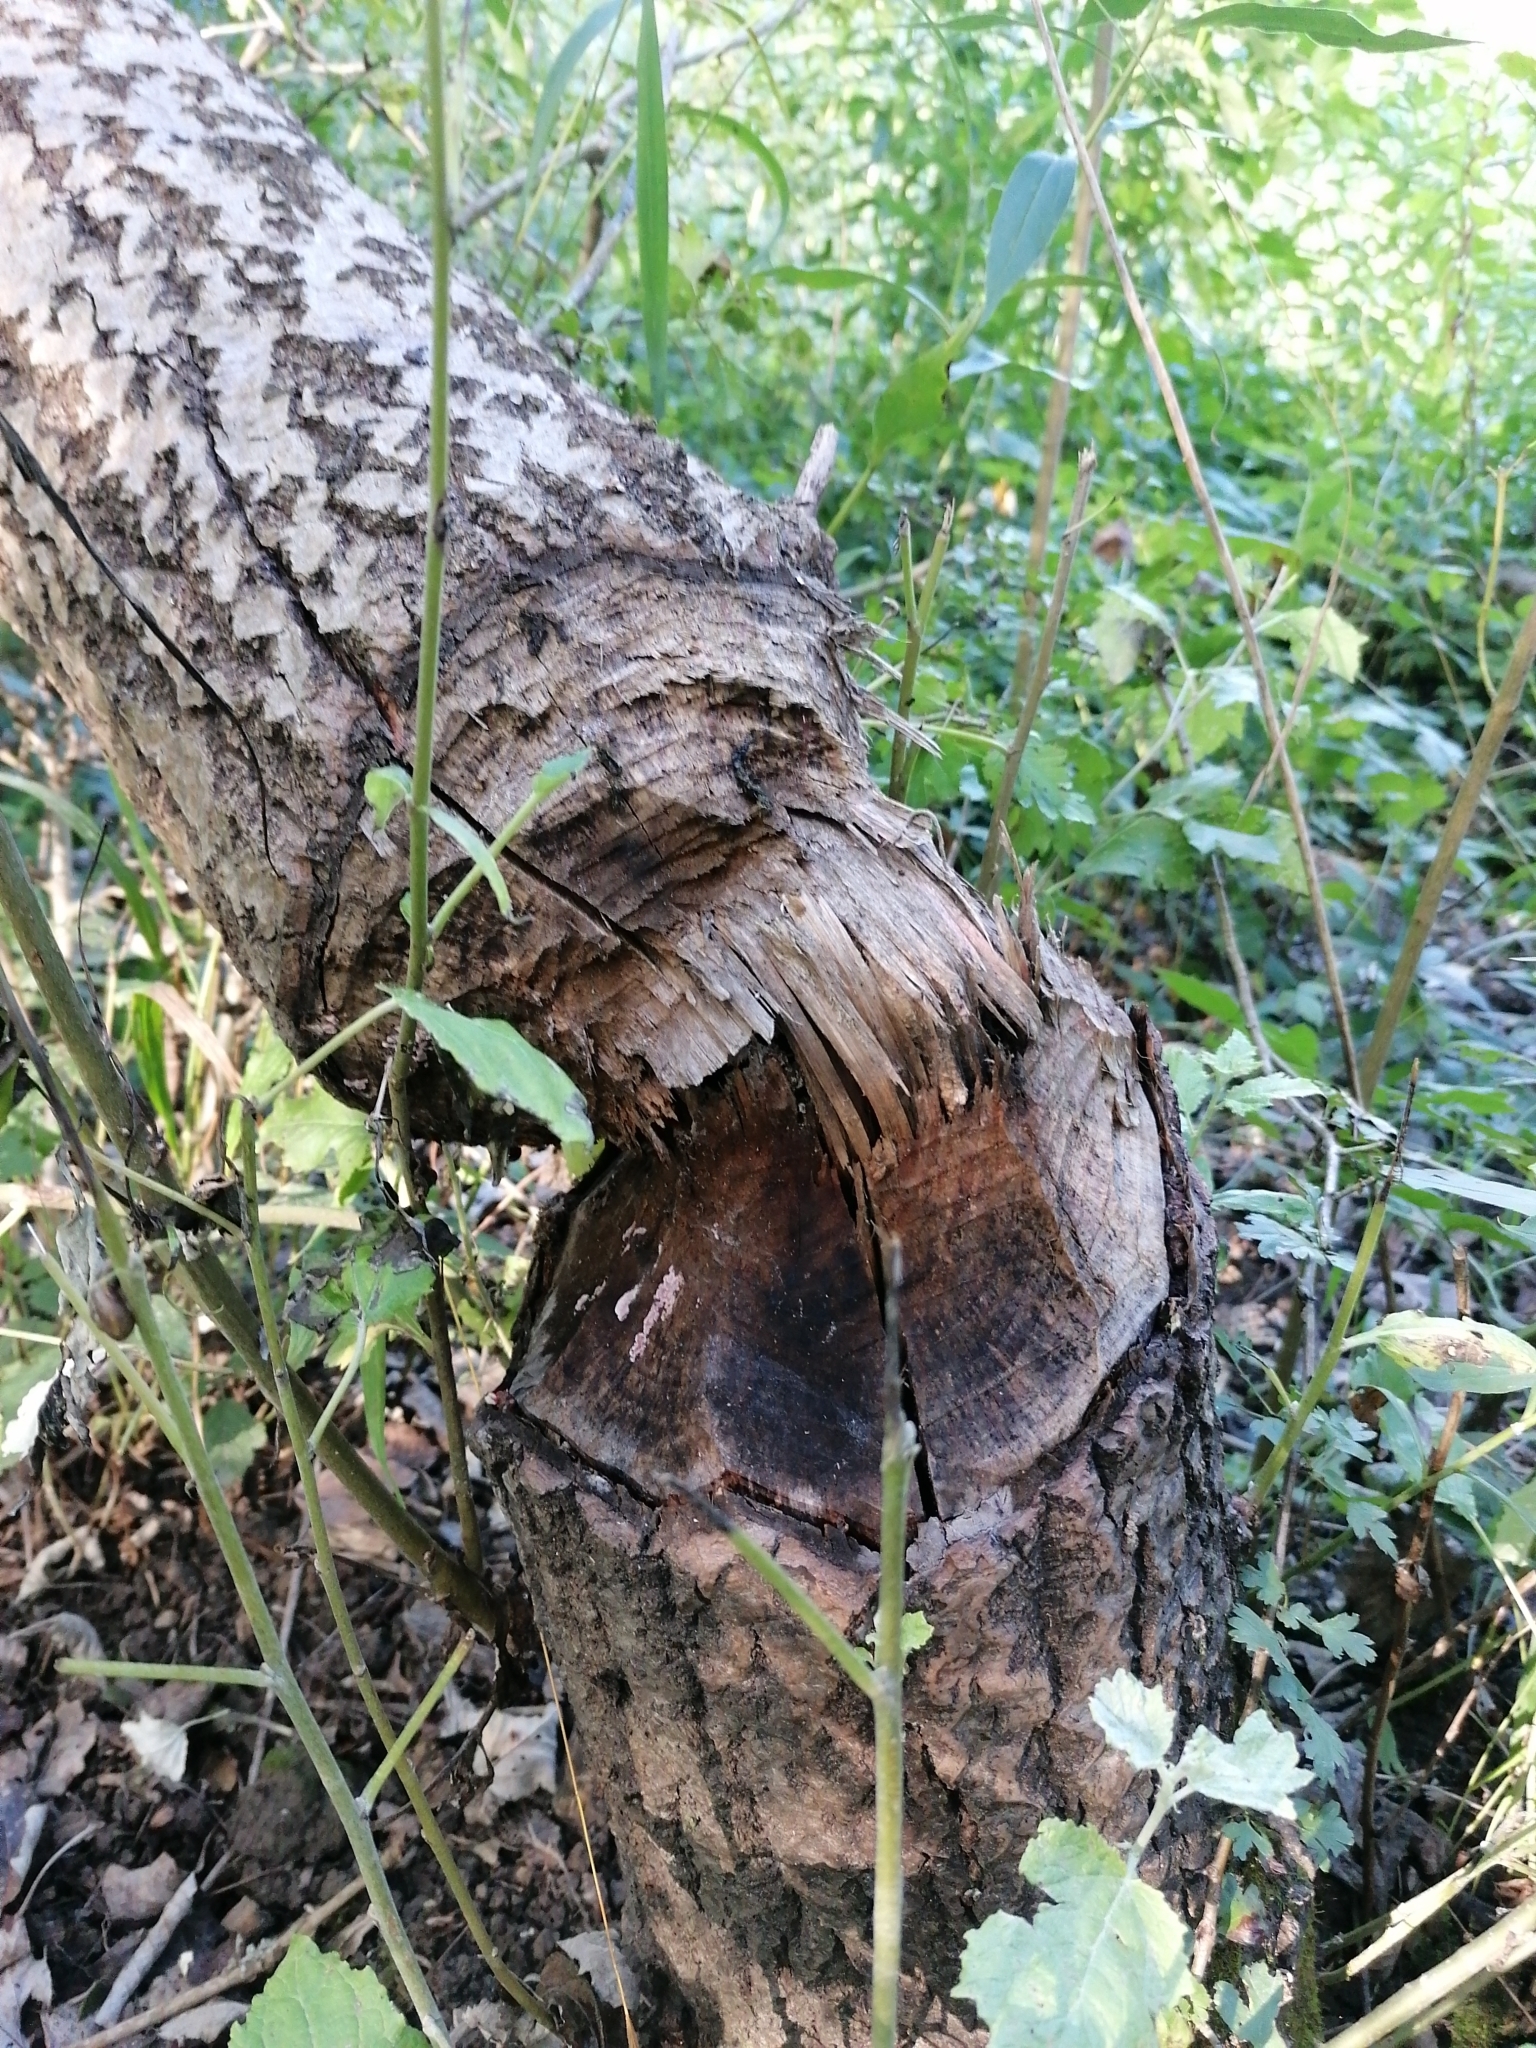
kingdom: Animalia
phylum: Chordata
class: Mammalia
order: Rodentia
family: Castoridae
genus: Castor
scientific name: Castor fiber
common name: Eurasian beaver
